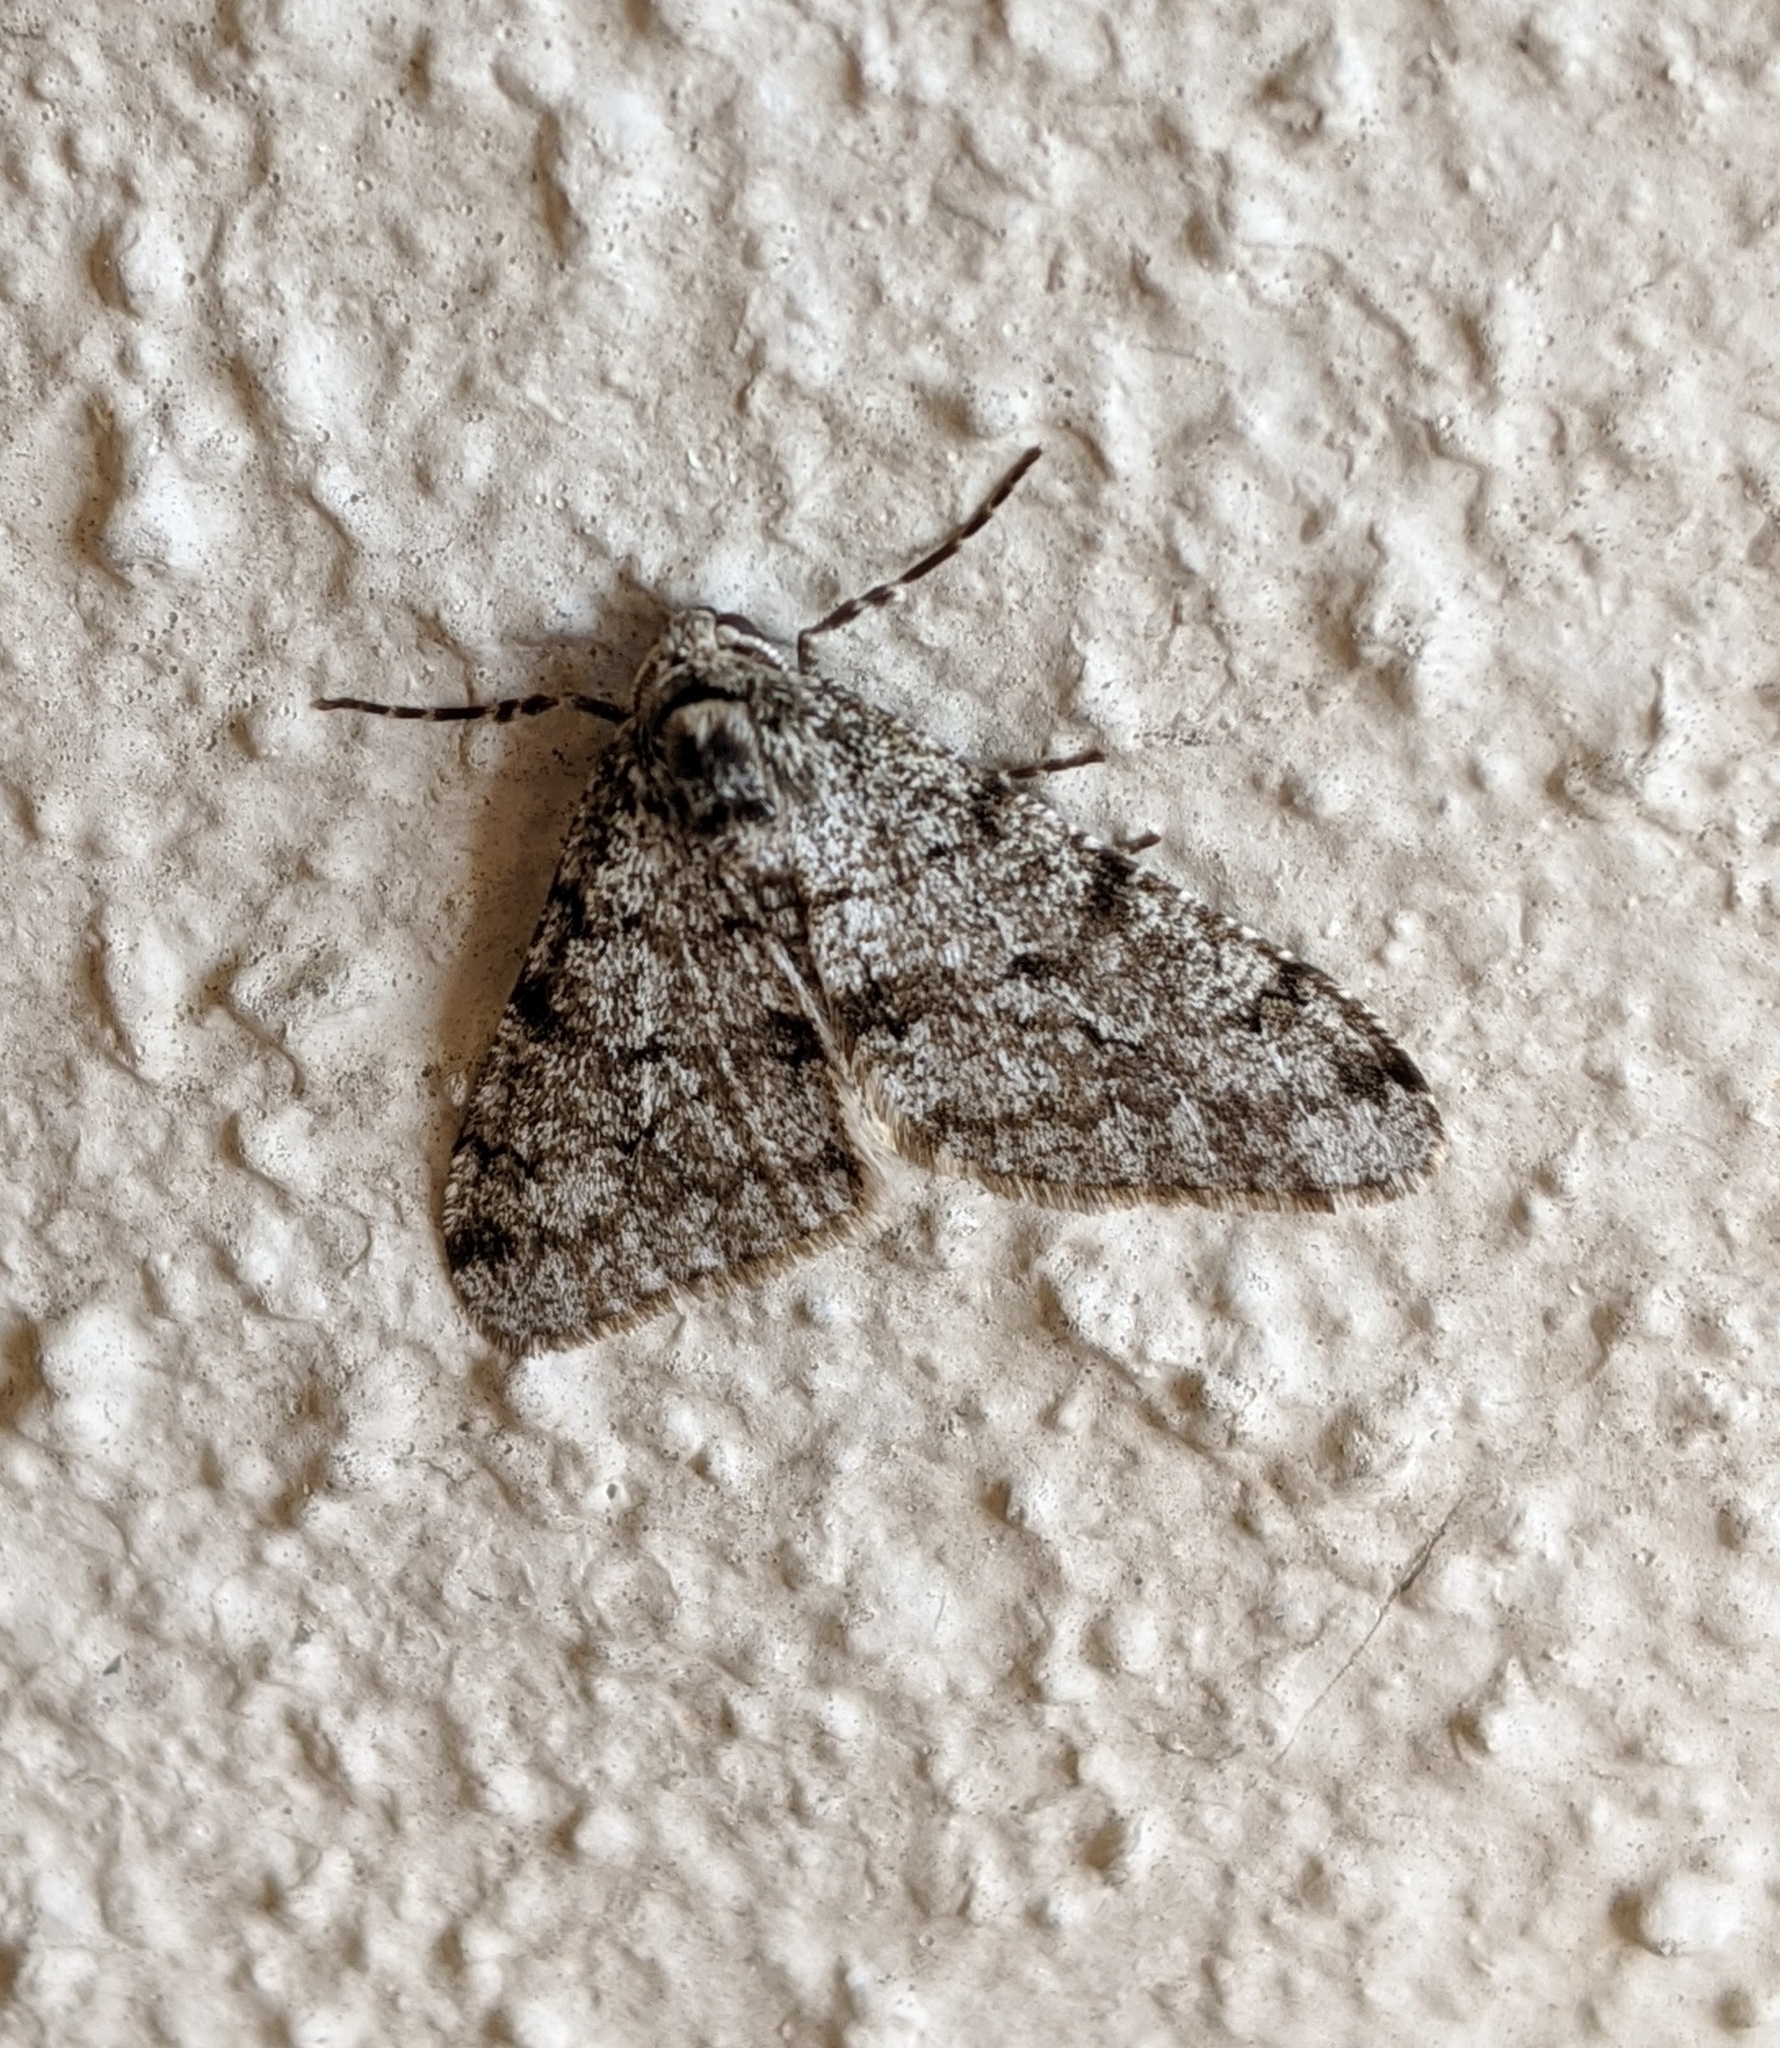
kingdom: Animalia
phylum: Arthropoda
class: Insecta
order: Lepidoptera
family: Geometridae
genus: Phigalia
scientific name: Phigalia strigataria
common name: Small phigalia
